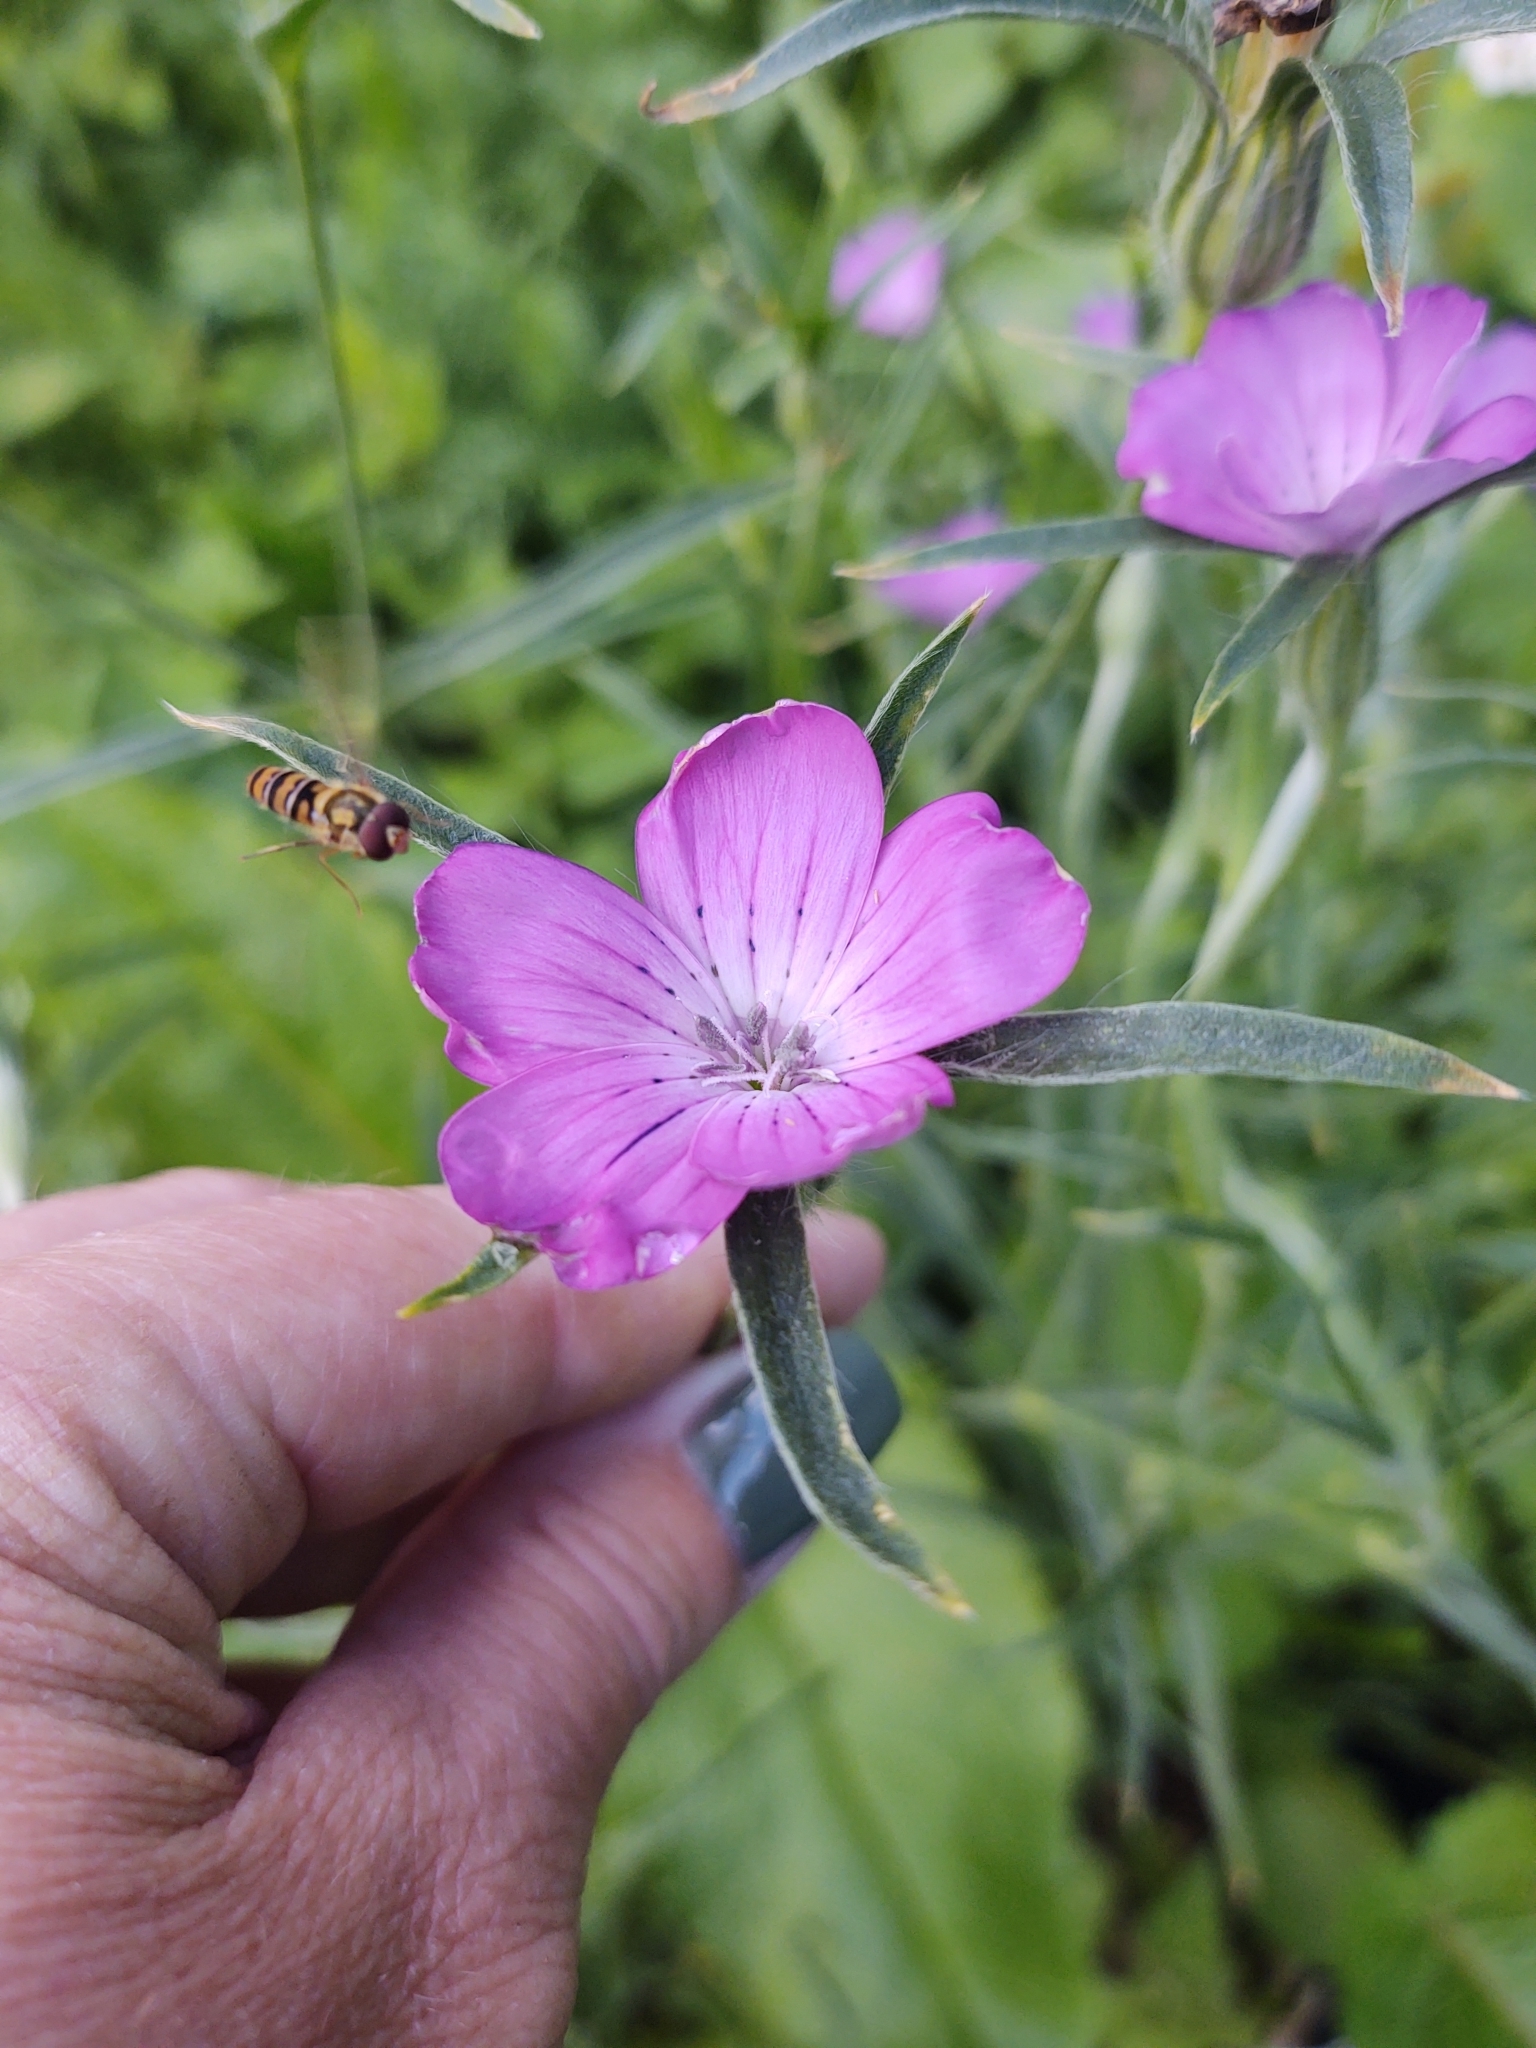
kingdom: Plantae
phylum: Tracheophyta
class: Magnoliopsida
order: Caryophyllales
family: Caryophyllaceae
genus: Agrostemma
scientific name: Agrostemma githago
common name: Common corncockle
